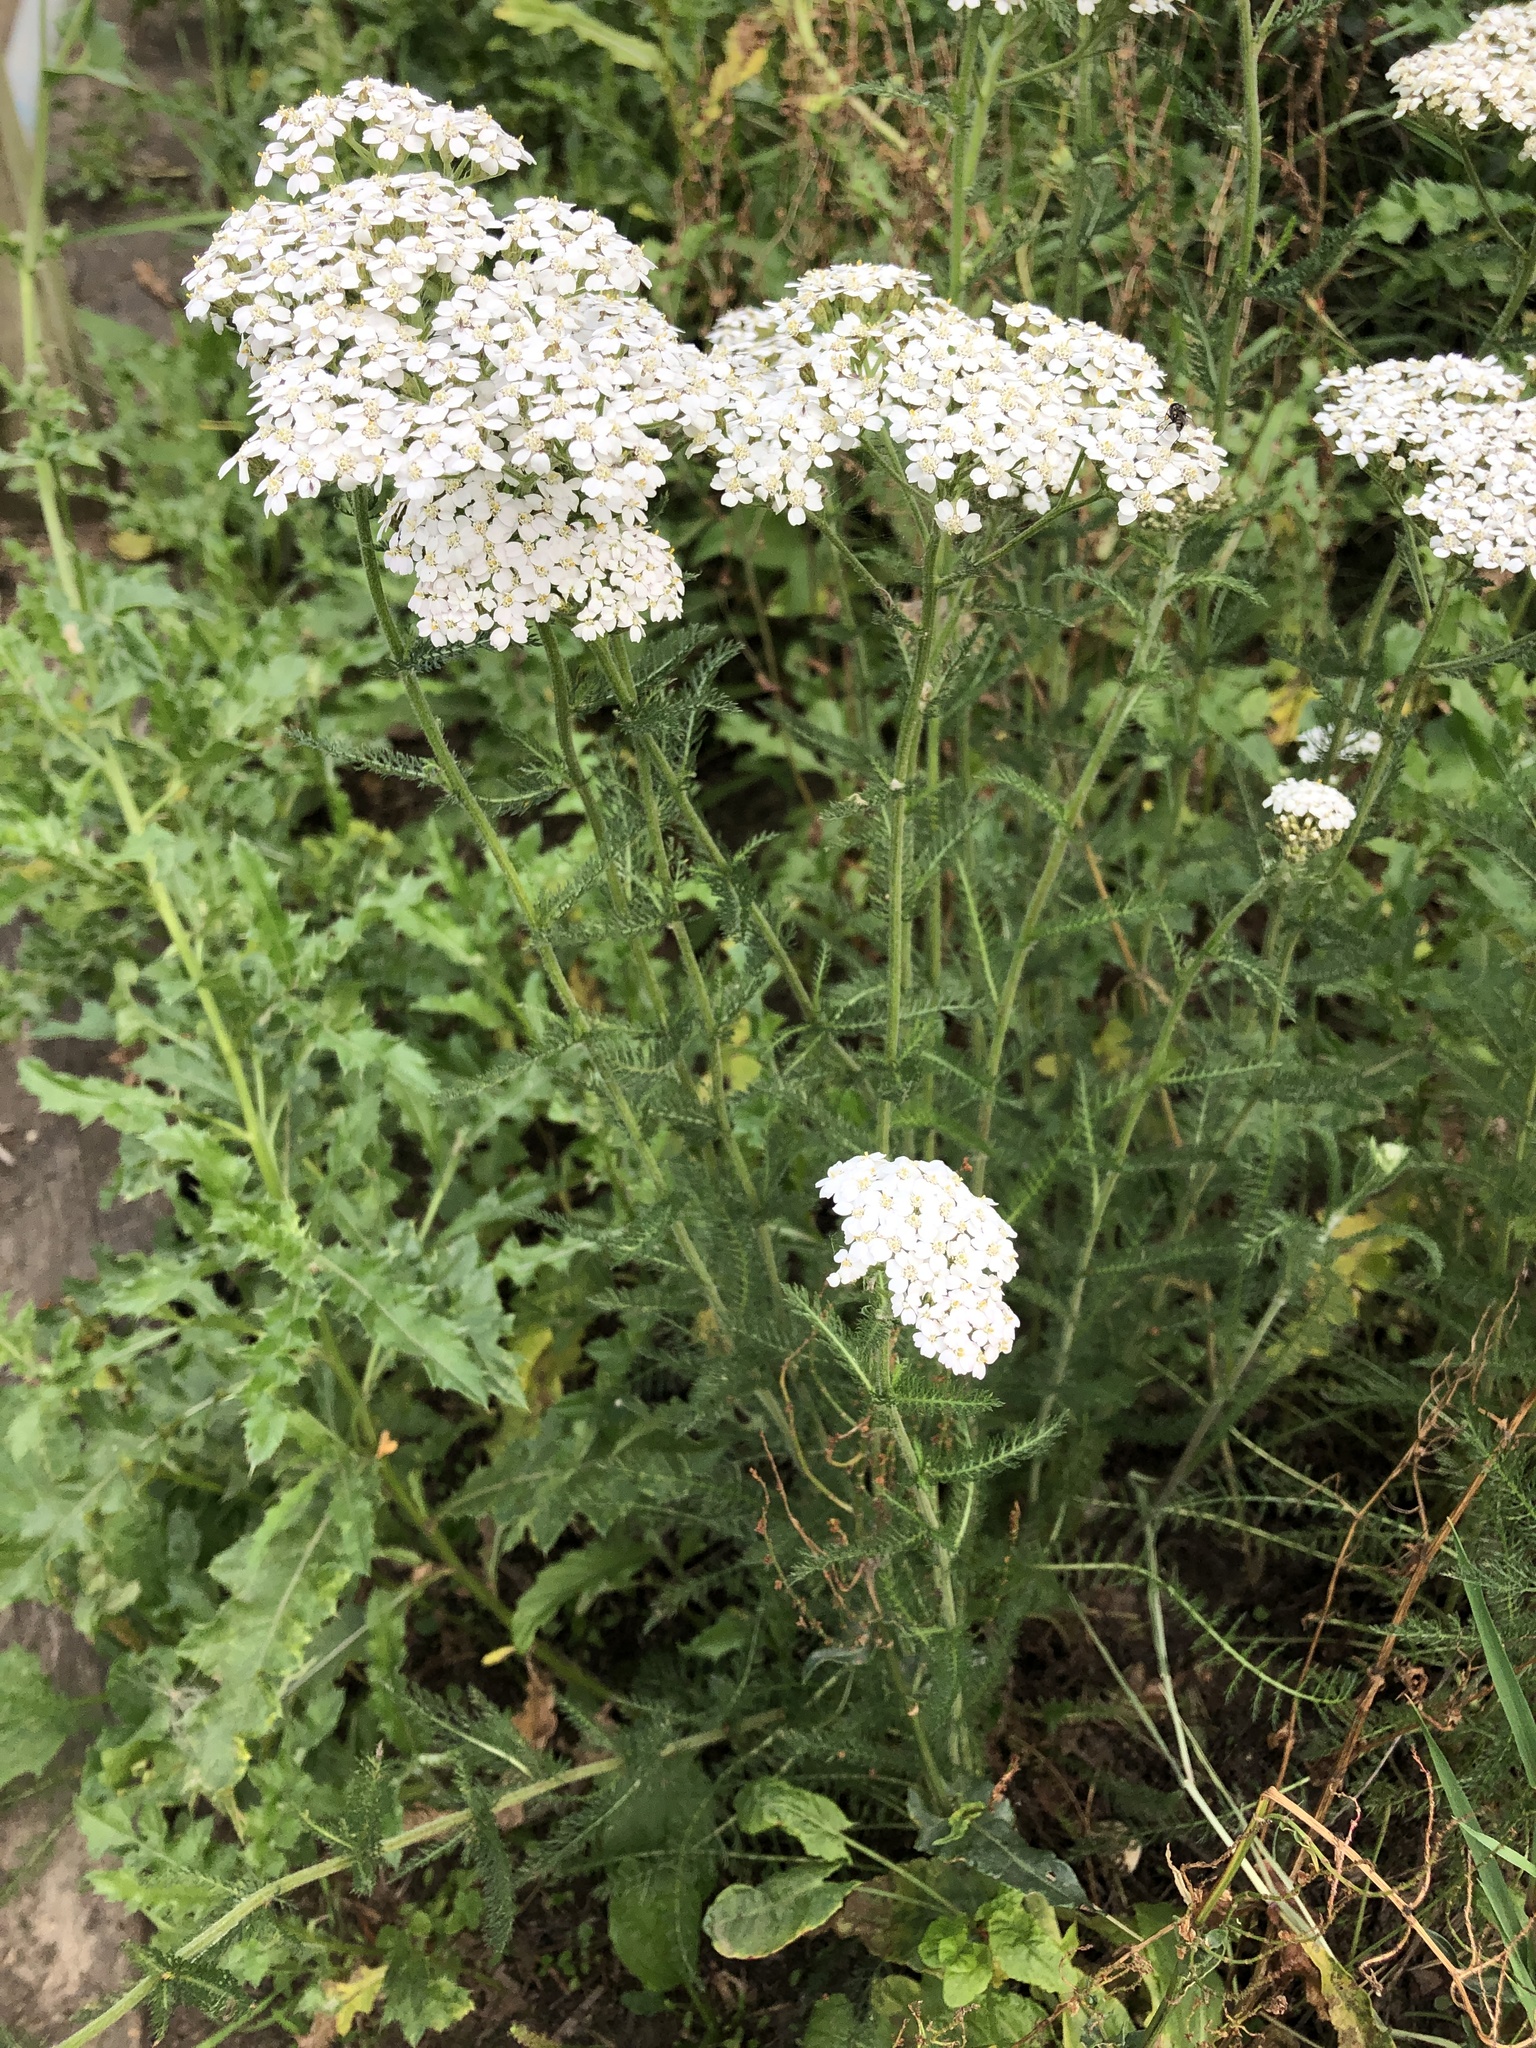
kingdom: Plantae
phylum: Tracheophyta
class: Magnoliopsida
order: Asterales
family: Asteraceae
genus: Achillea
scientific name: Achillea millefolium
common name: Yarrow
